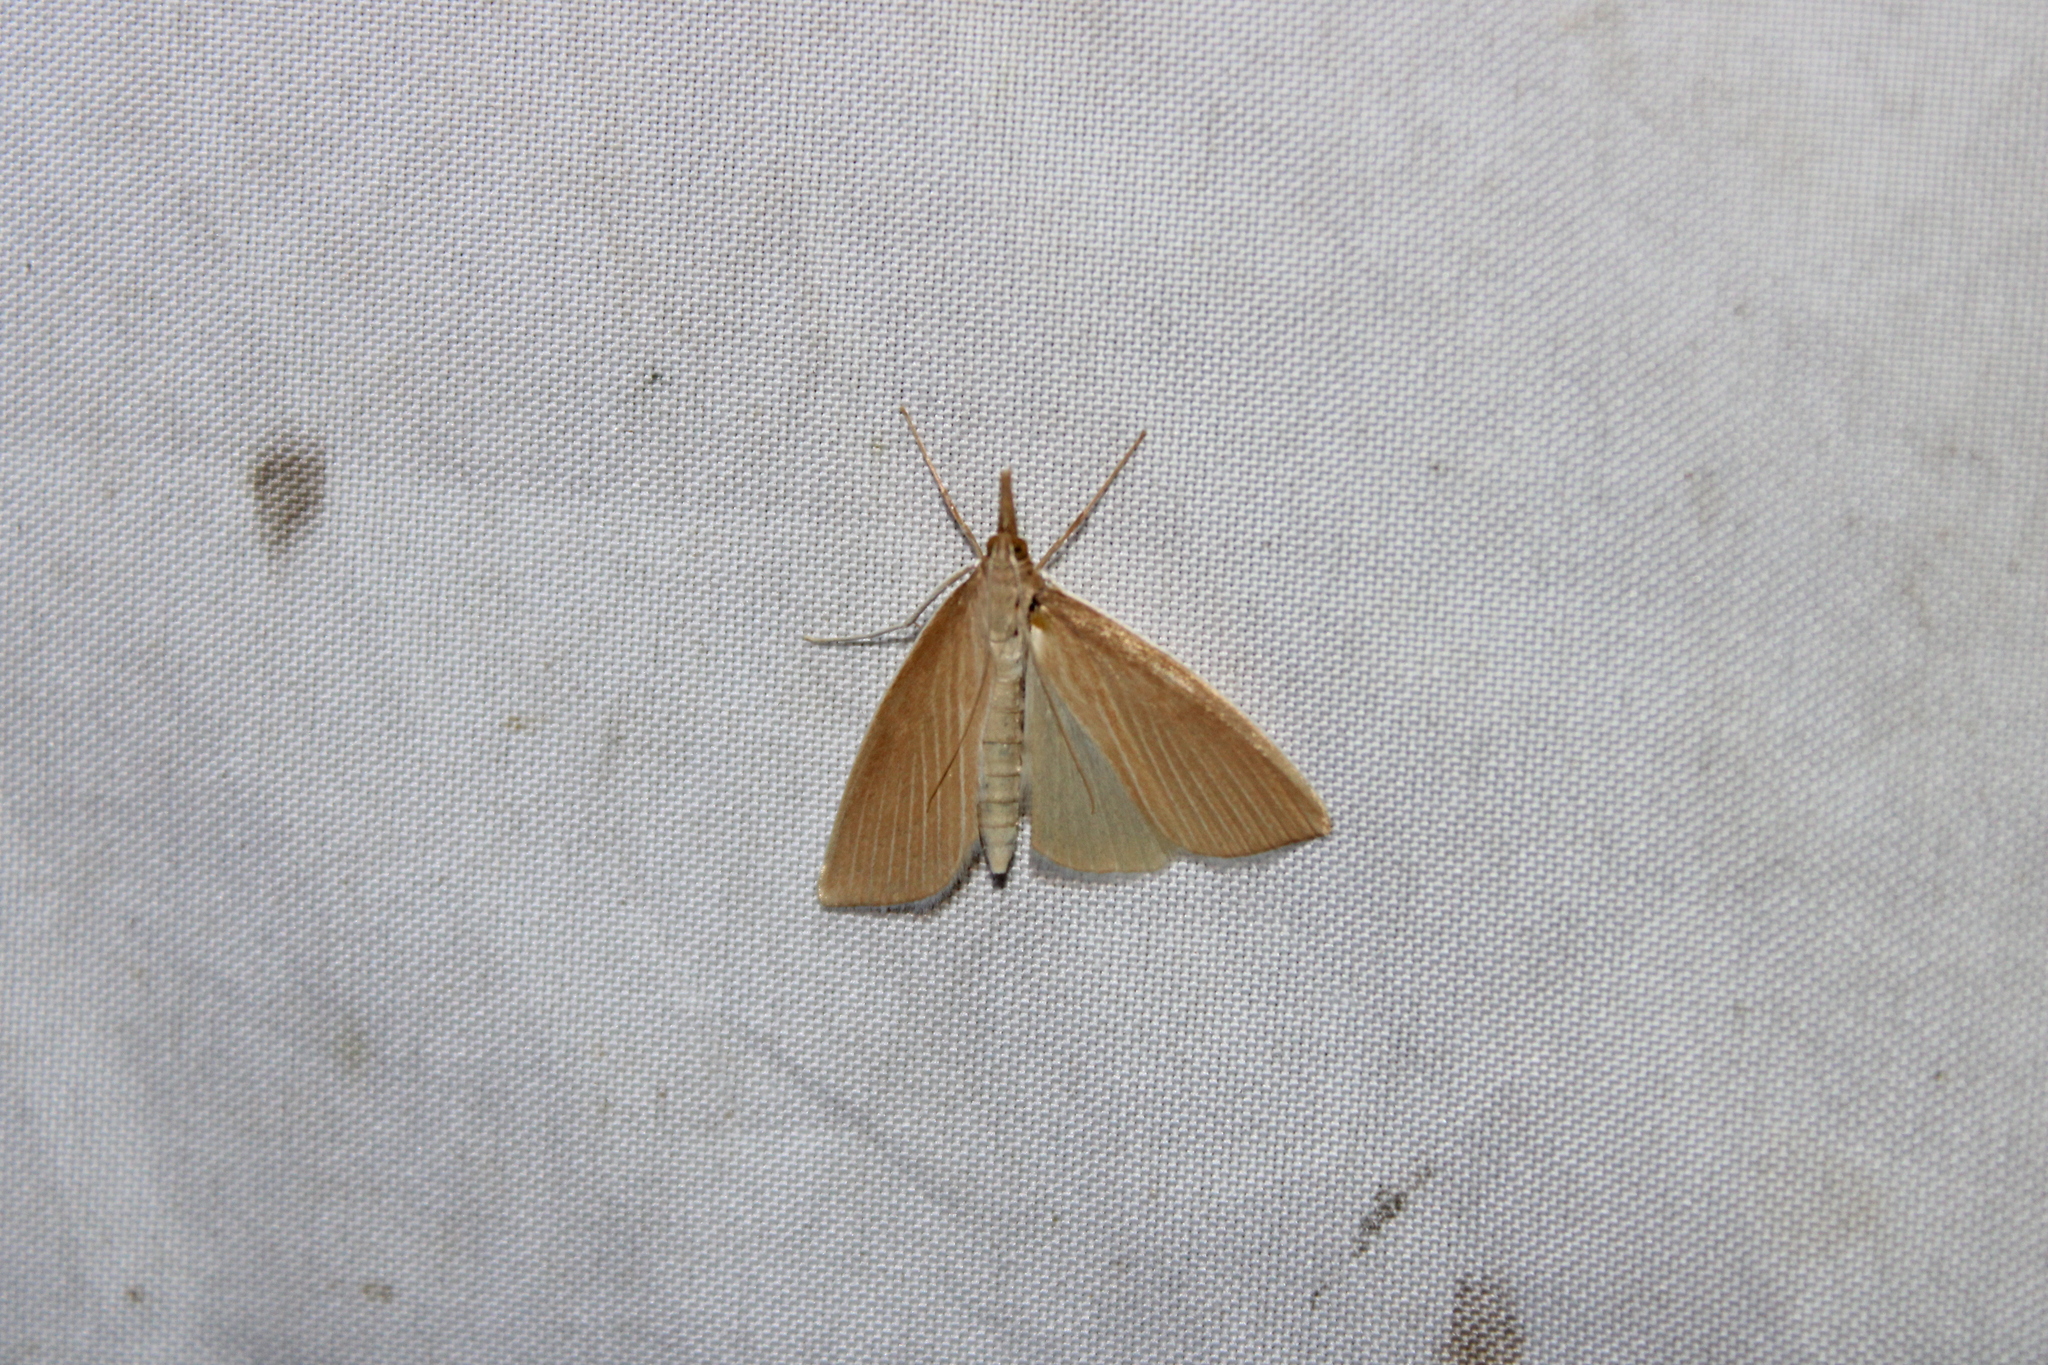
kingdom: Animalia
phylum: Arthropoda
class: Insecta
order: Lepidoptera
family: Crambidae
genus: Calamochrous
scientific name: Calamochrous Sclerocona acutella
